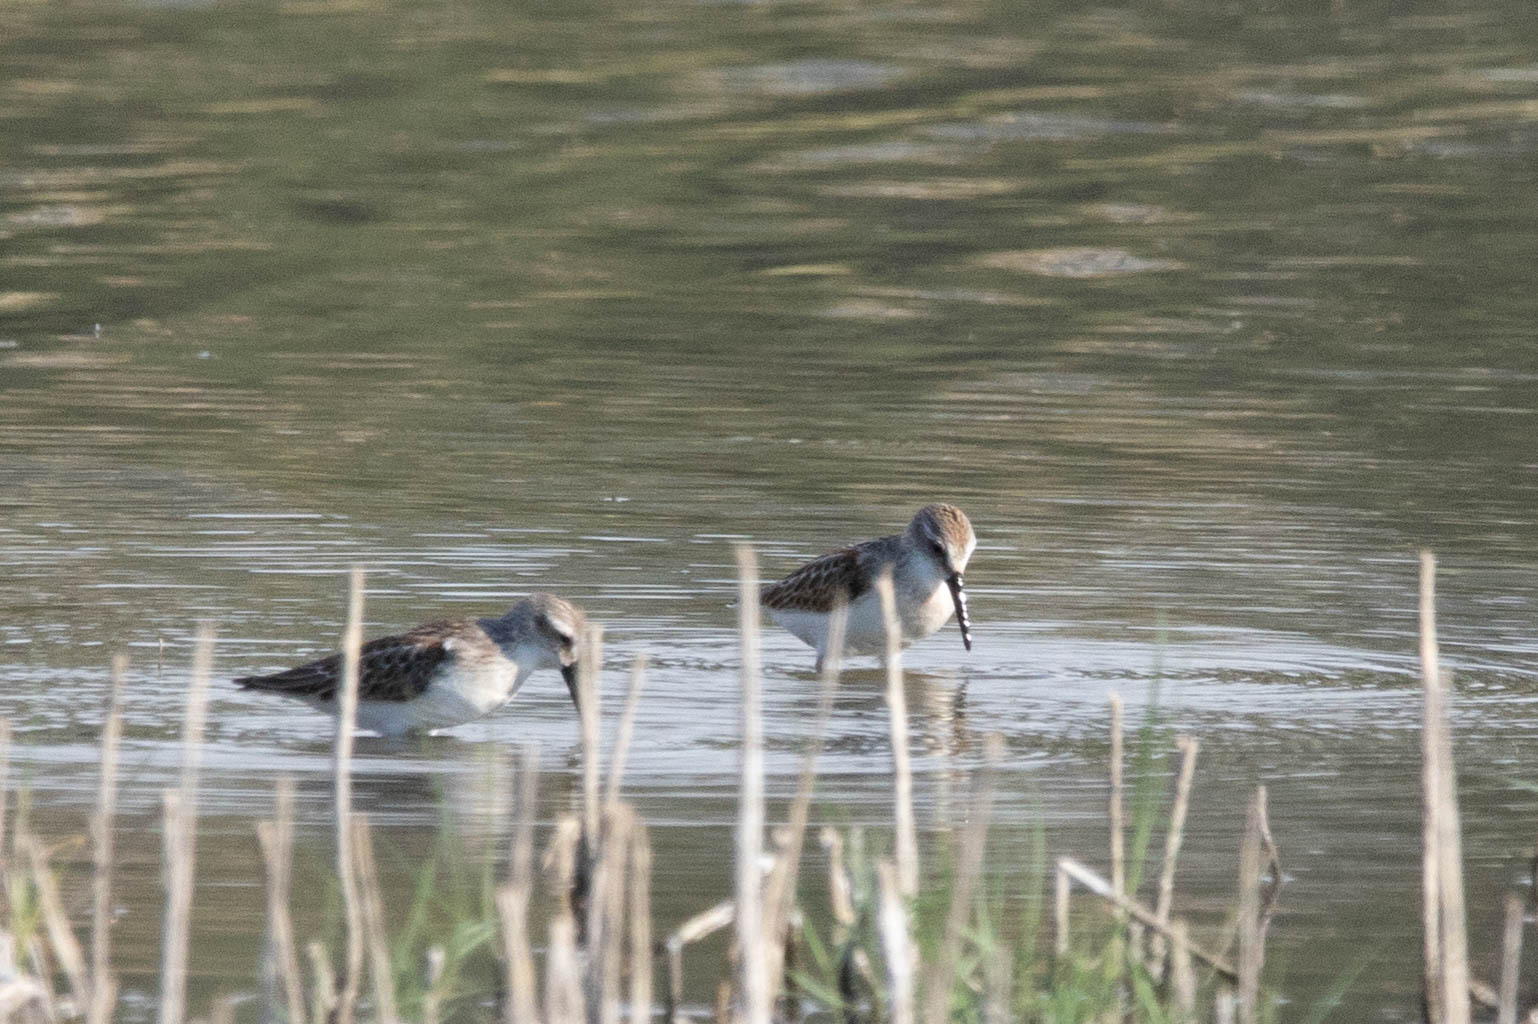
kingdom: Animalia
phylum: Chordata
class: Aves
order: Charadriiformes
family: Scolopacidae
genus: Calidris
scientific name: Calidris mauri
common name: Western sandpiper
